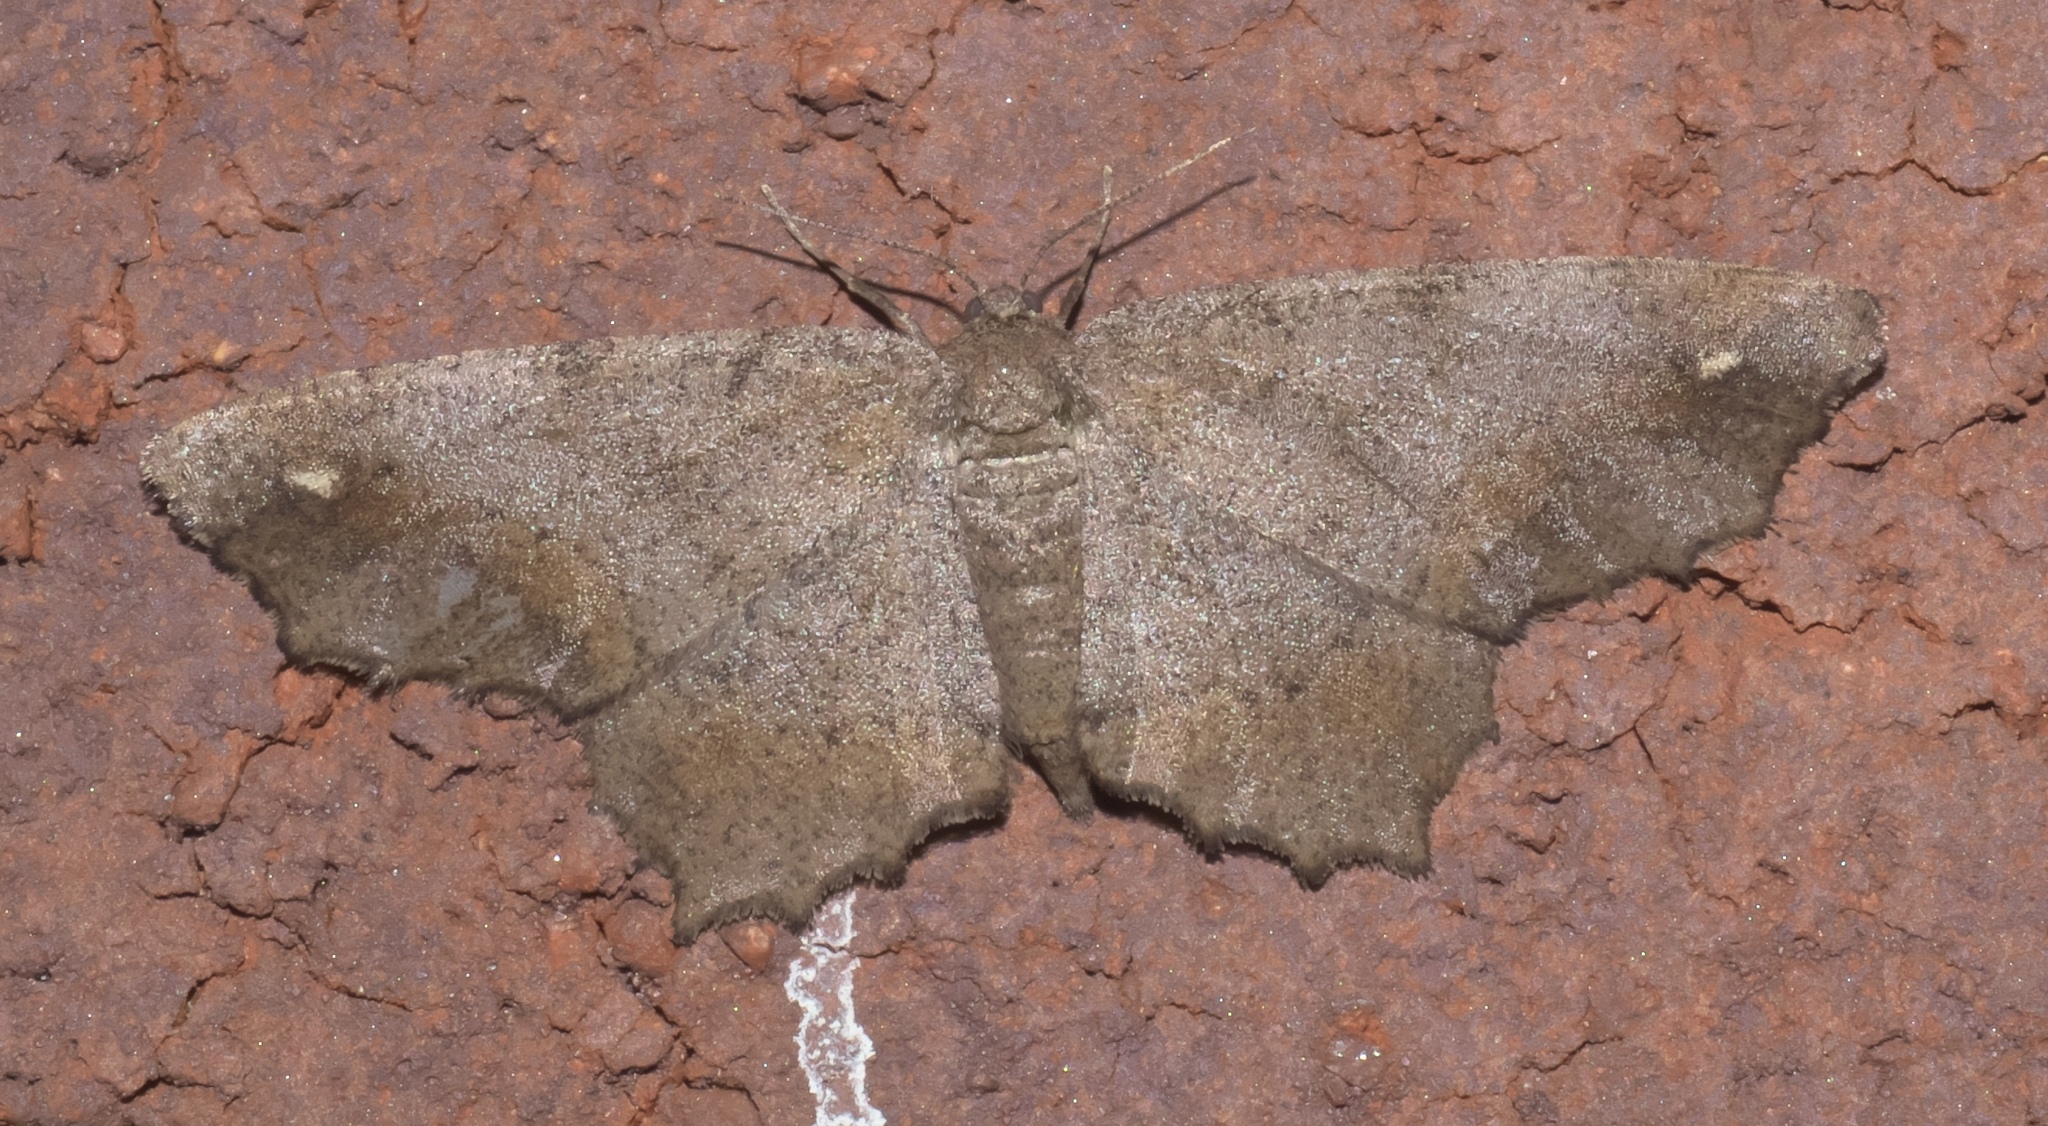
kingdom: Animalia
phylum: Arthropoda
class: Insecta
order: Lepidoptera
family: Geometridae
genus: Hypagyrtis
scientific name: Hypagyrtis esther
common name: Esther moth
